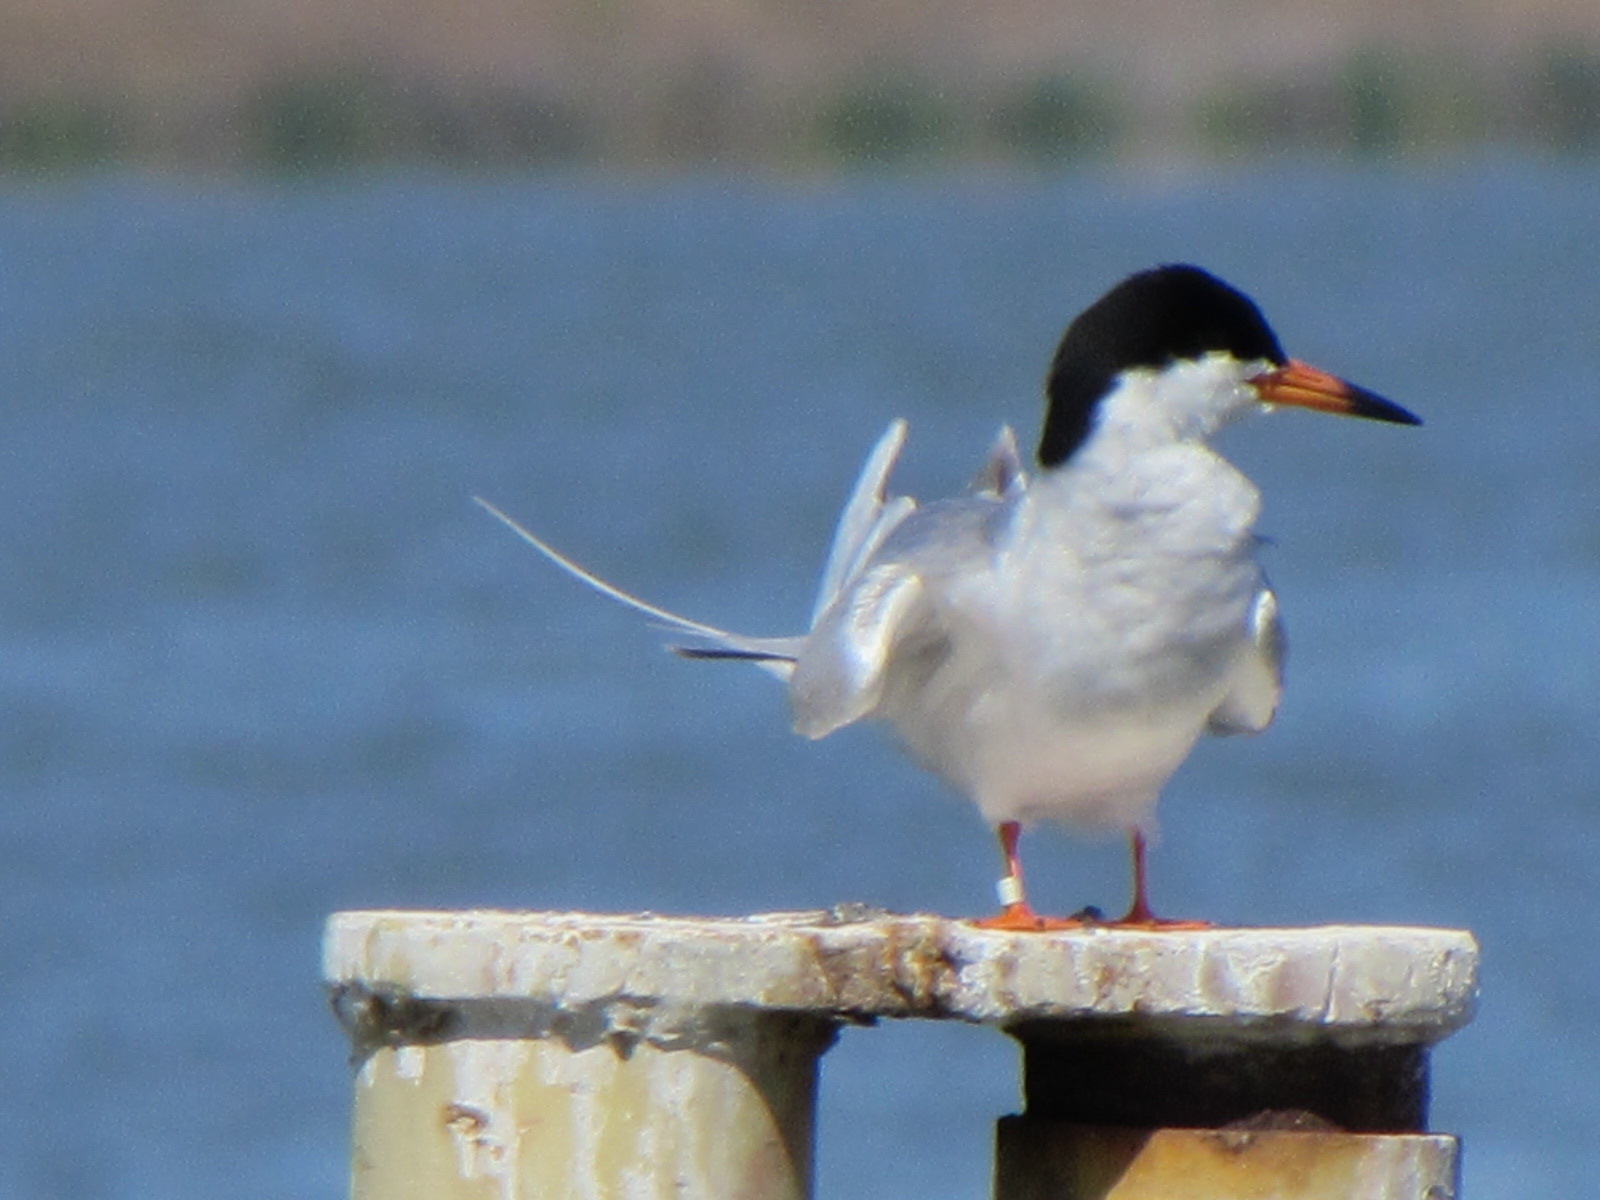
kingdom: Animalia
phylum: Chordata
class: Aves
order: Charadriiformes
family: Laridae
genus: Sterna
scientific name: Sterna forsteri
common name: Forster's tern
